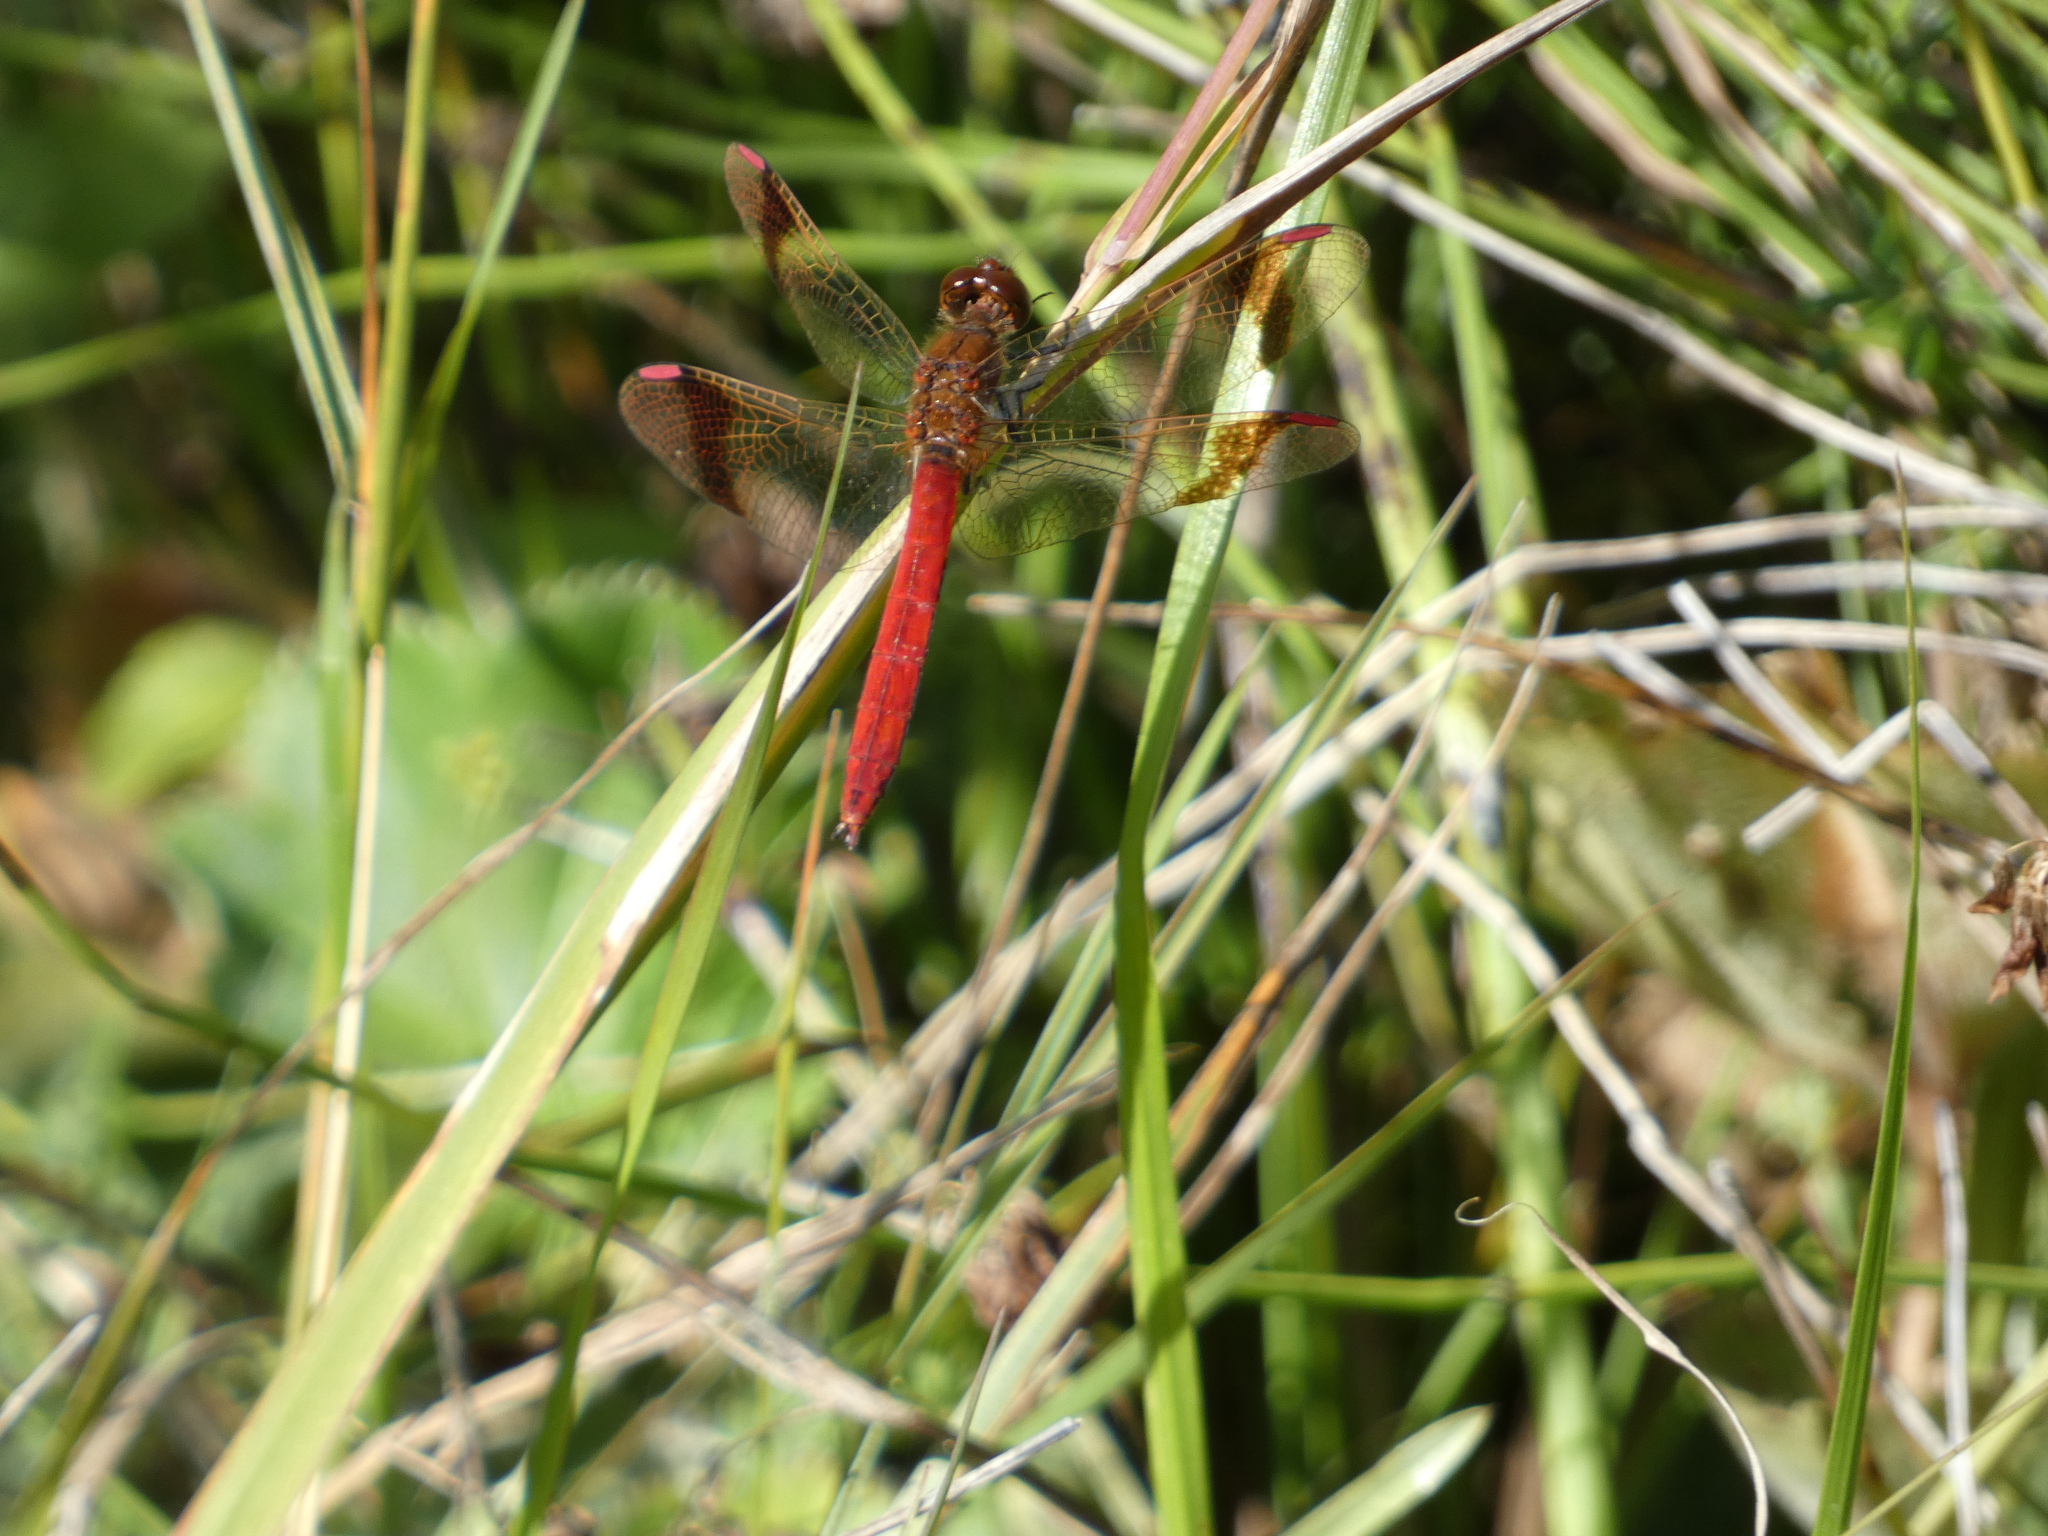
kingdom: Animalia
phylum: Arthropoda
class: Insecta
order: Odonata
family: Libellulidae
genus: Sympetrum
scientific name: Sympetrum pedemontanum
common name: Banded darter
